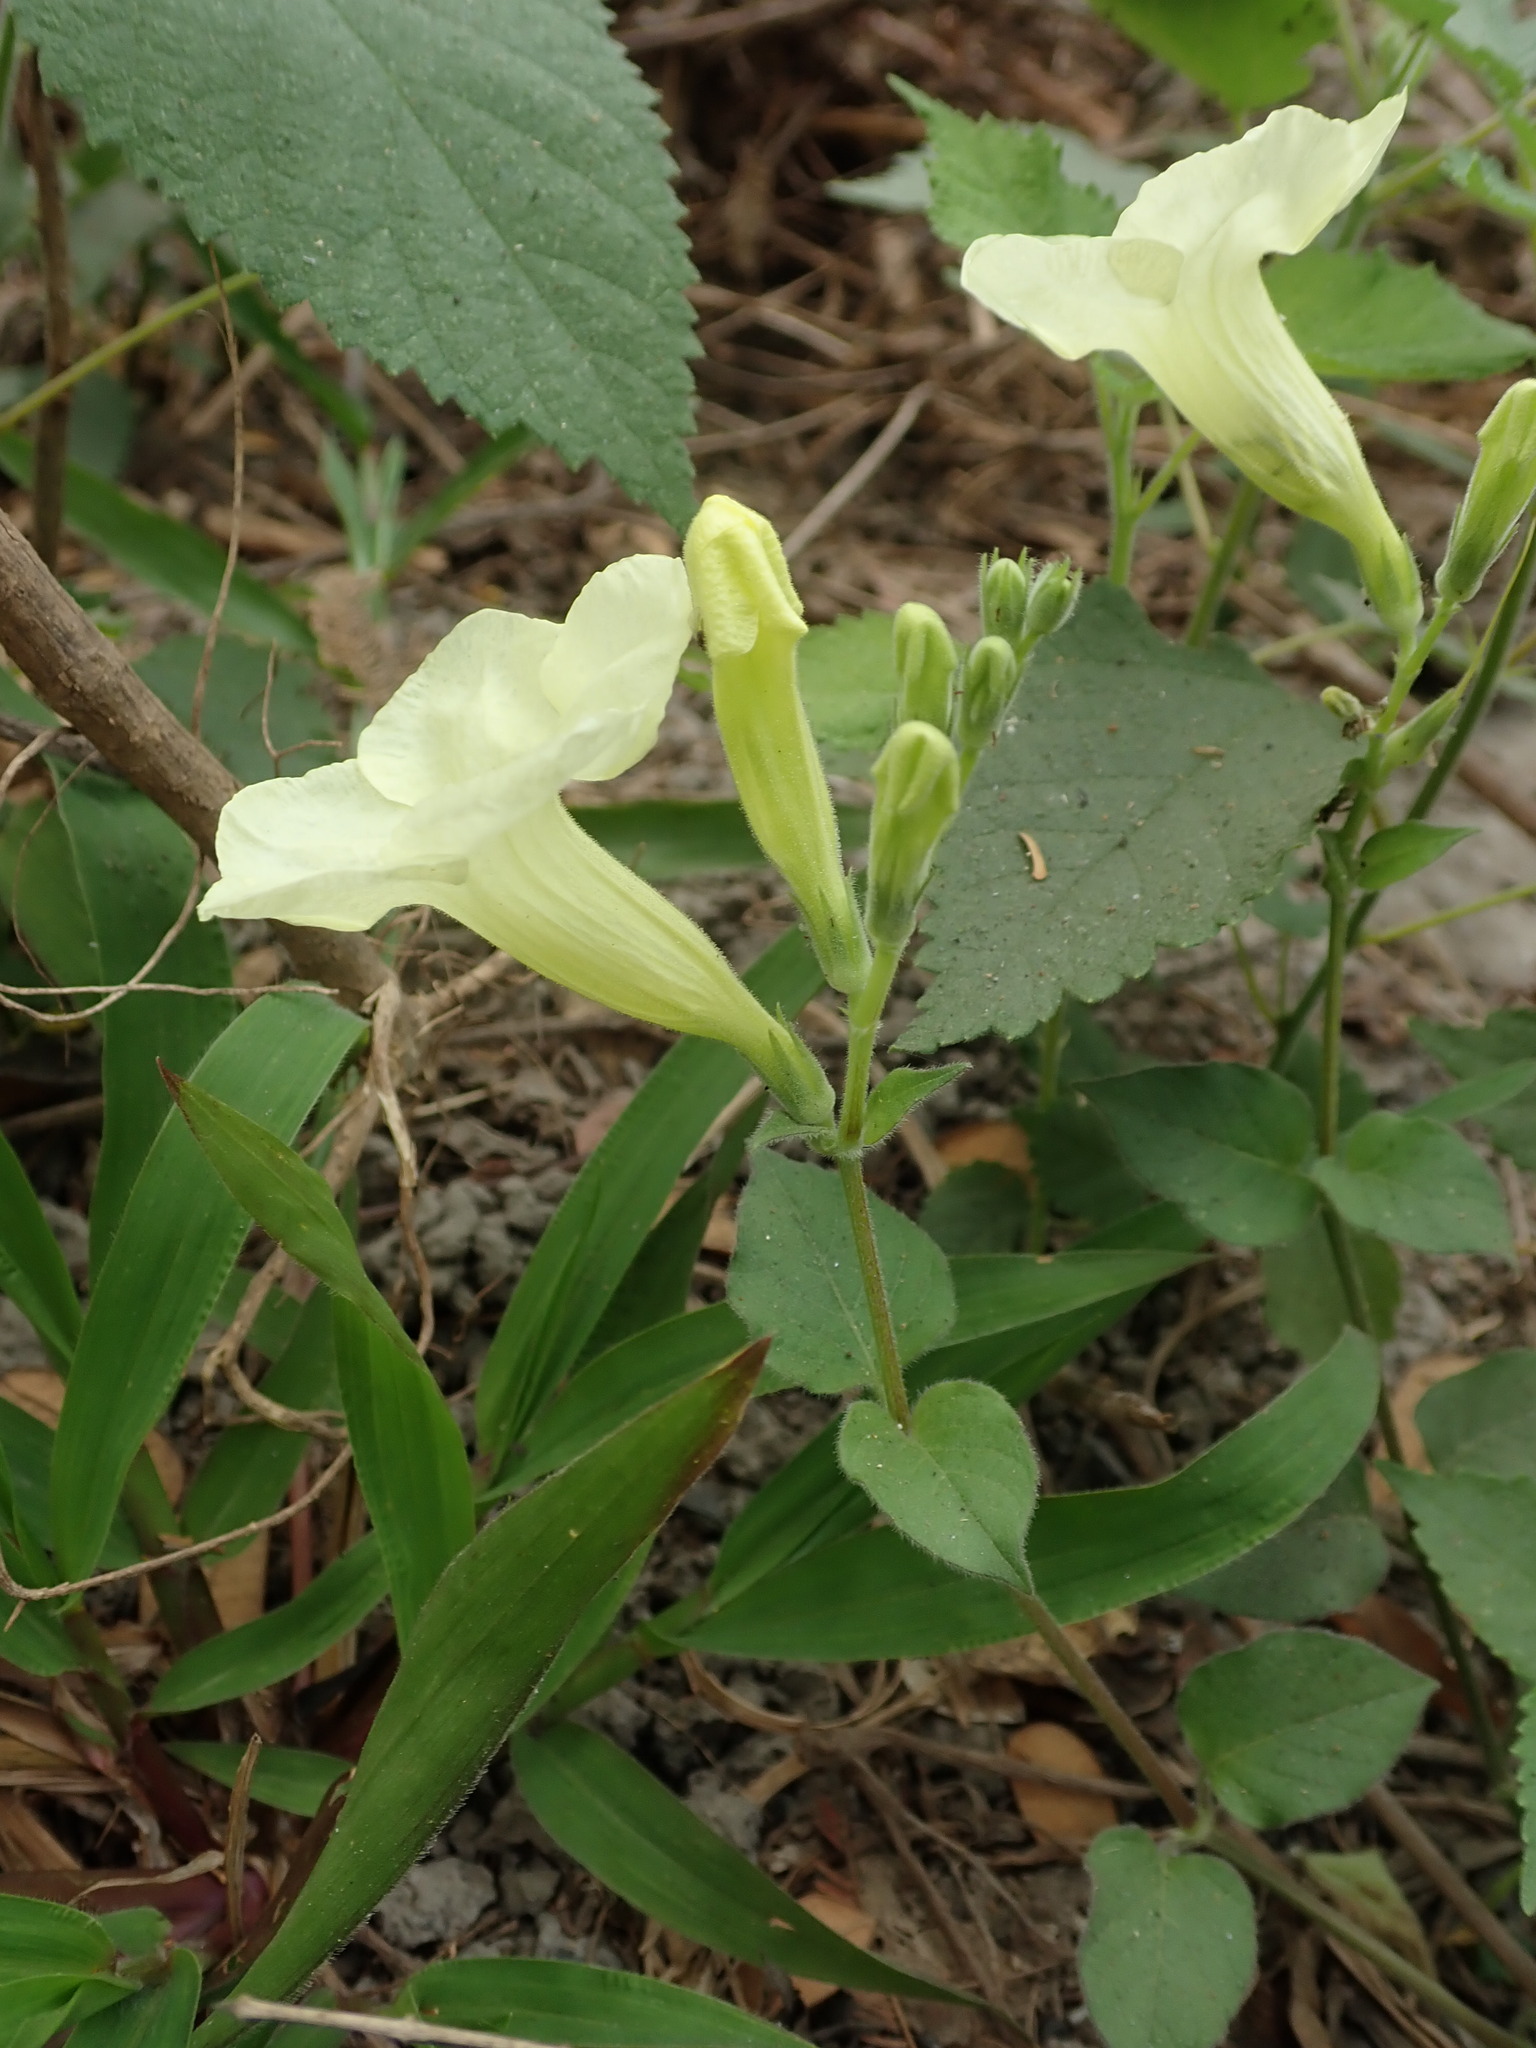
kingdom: Plantae
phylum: Tracheophyta
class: Magnoliopsida
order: Lamiales
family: Acanthaceae
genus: Asystasia
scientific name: Asystasia gangetica
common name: Chinese violet
